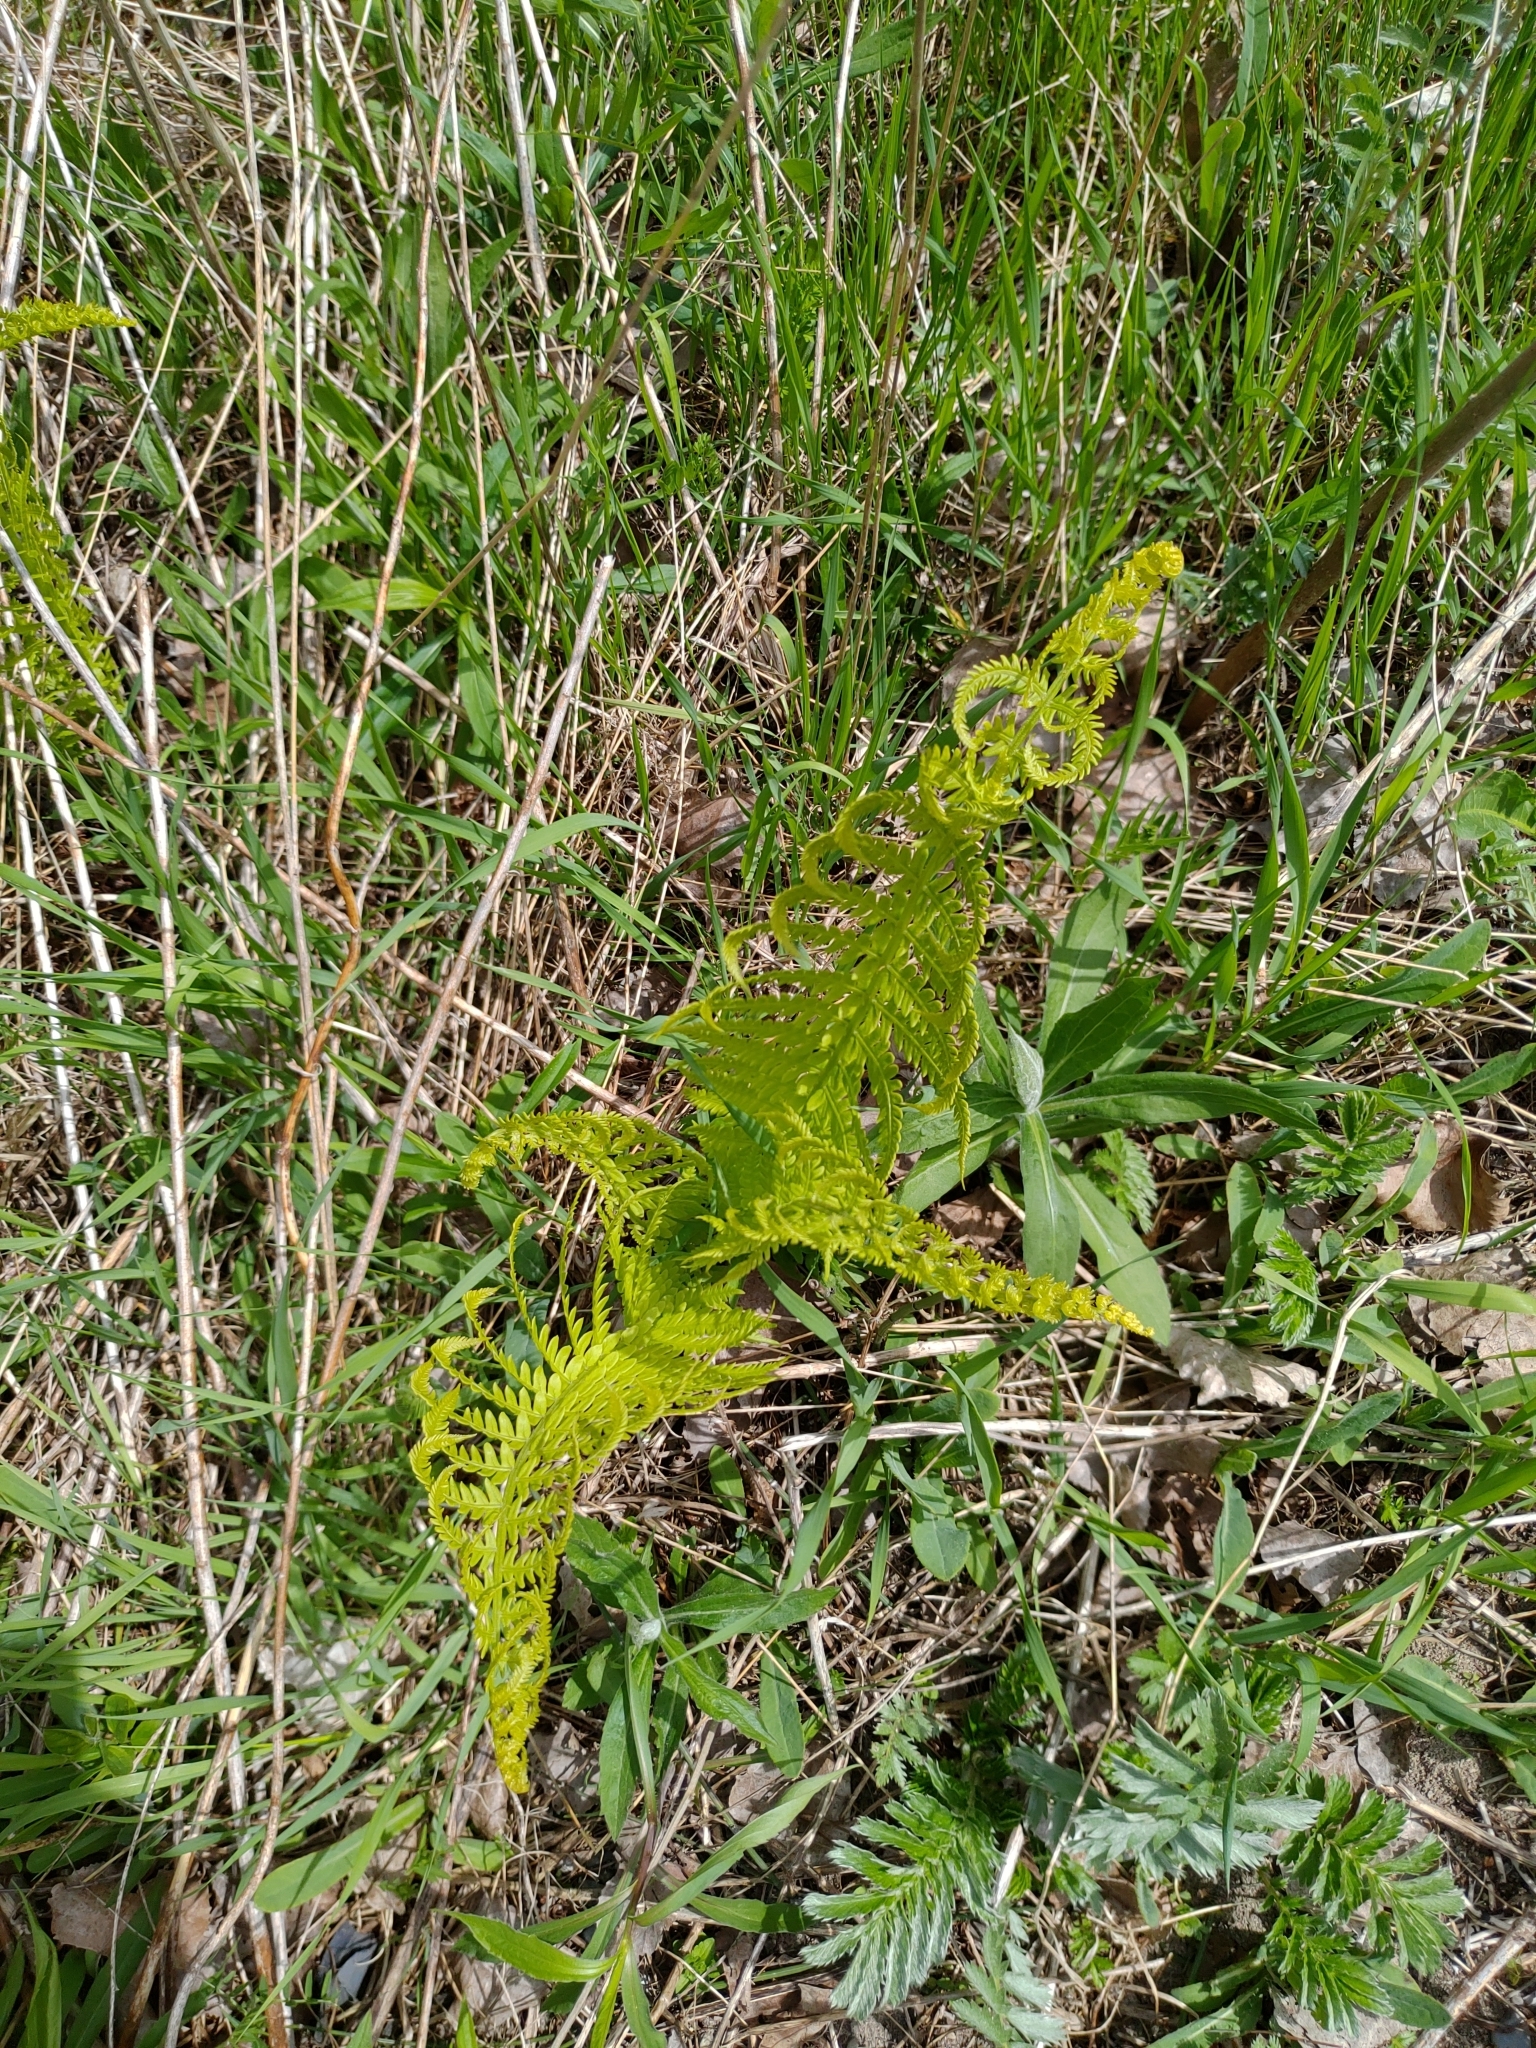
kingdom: Plantae
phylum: Tracheophyta
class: Polypodiopsida
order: Polypodiales
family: Onocleaceae
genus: Matteuccia
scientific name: Matteuccia pensylvanica
